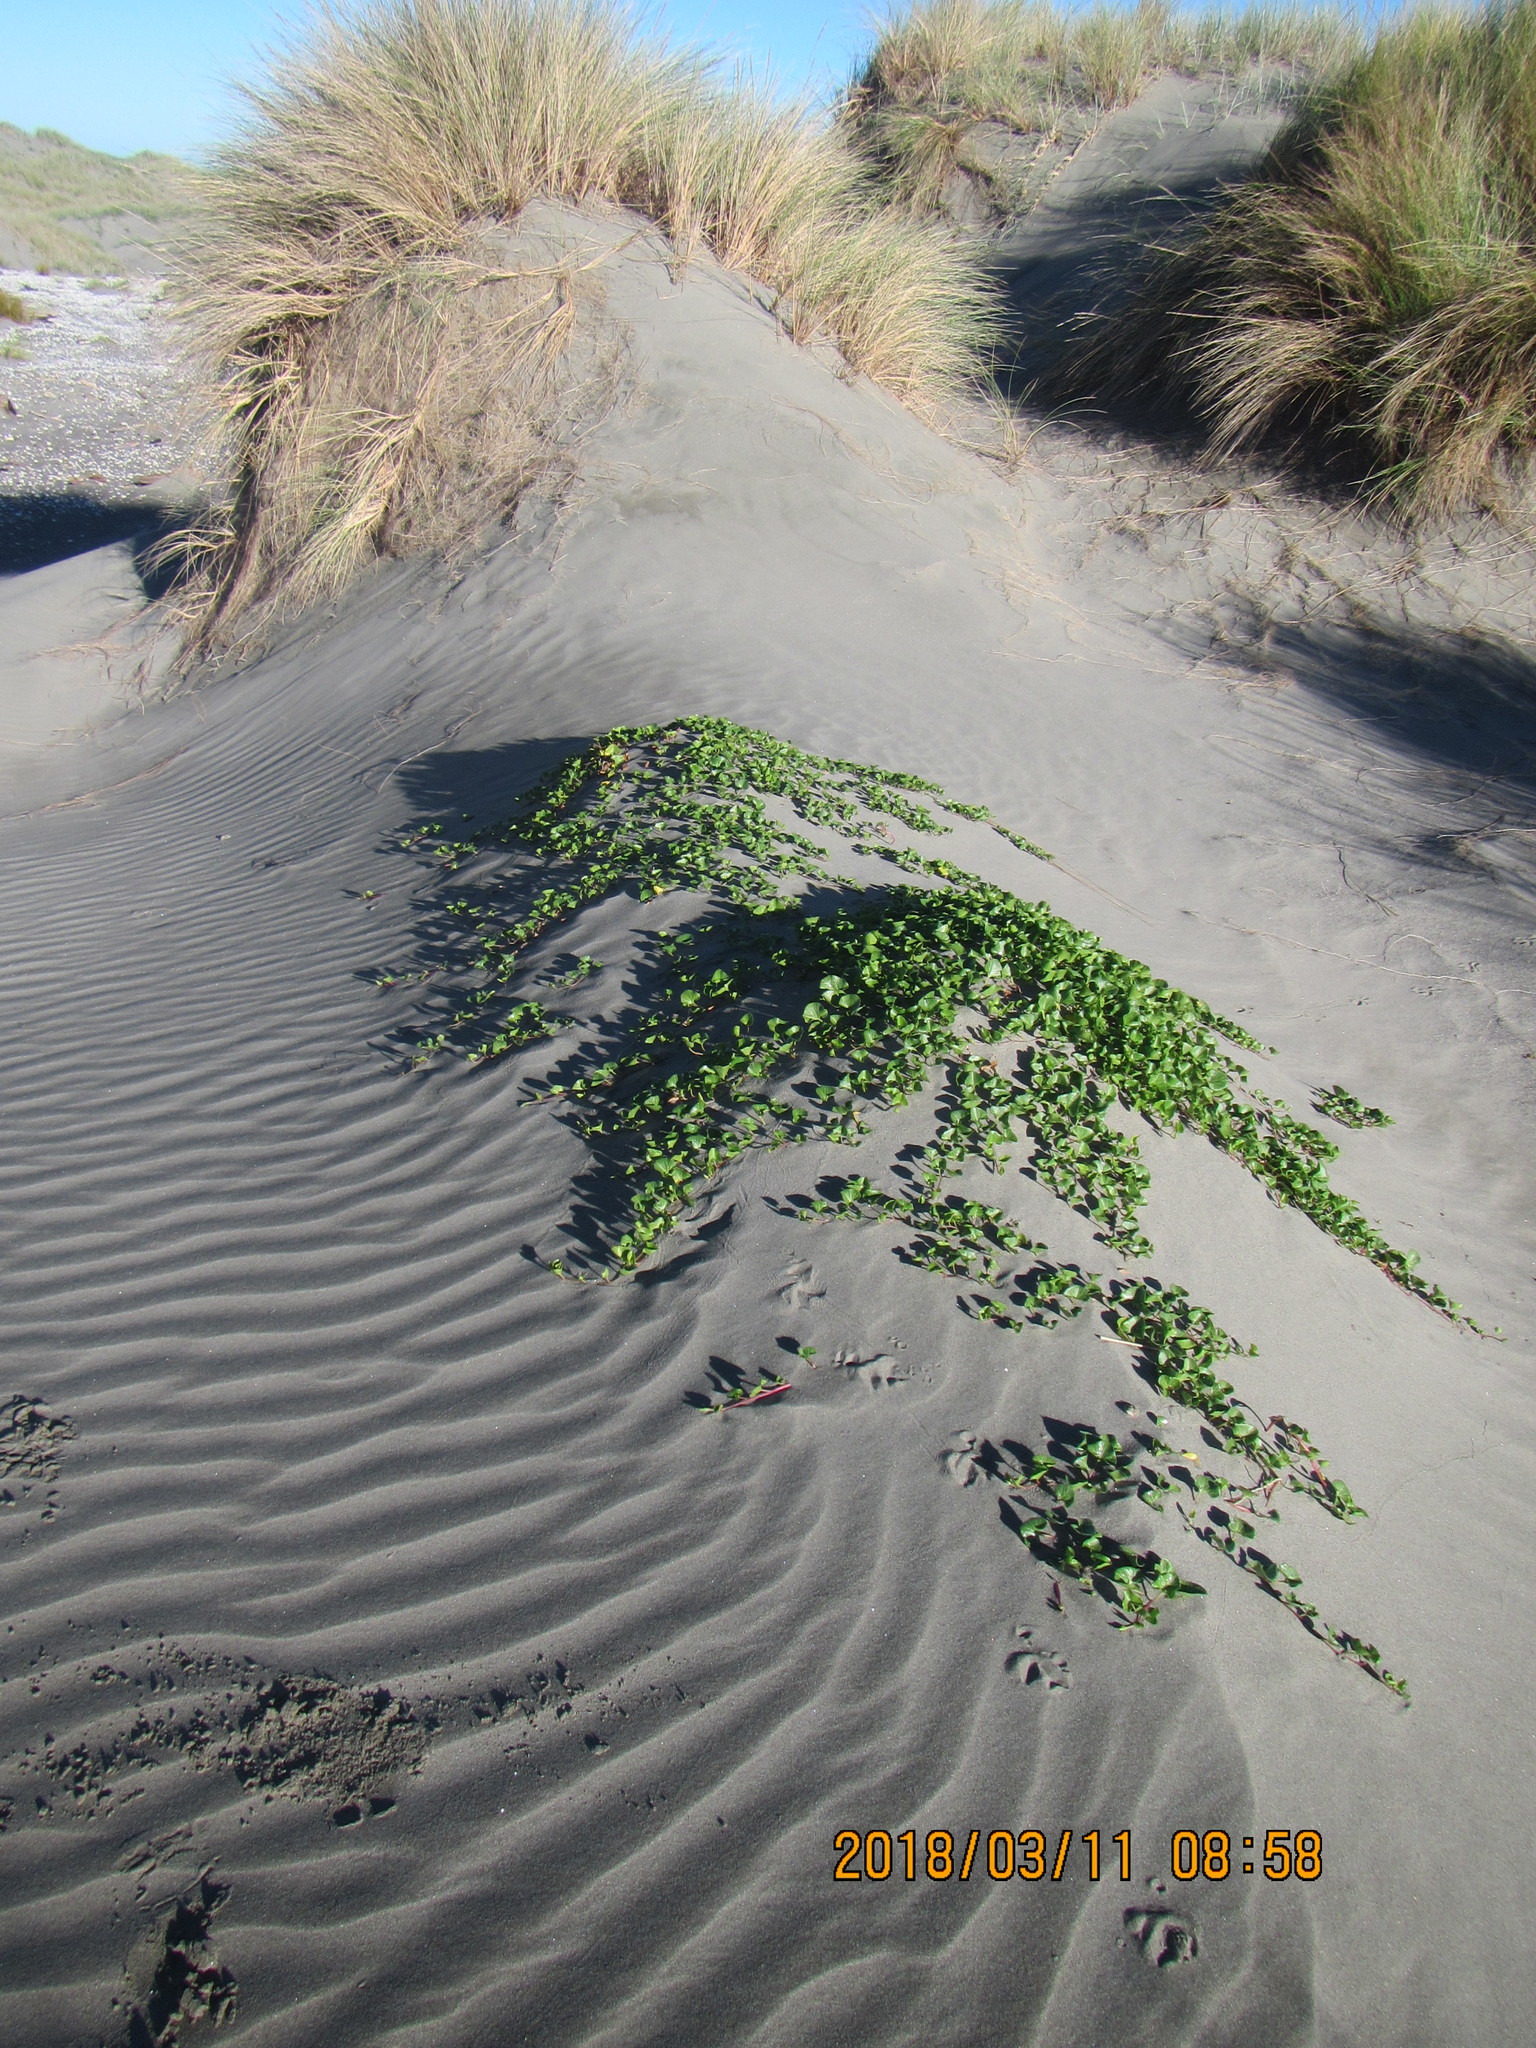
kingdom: Plantae
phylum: Tracheophyta
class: Magnoliopsida
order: Solanales
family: Convolvulaceae
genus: Calystegia
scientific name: Calystegia soldanella
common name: Sea bindweed
